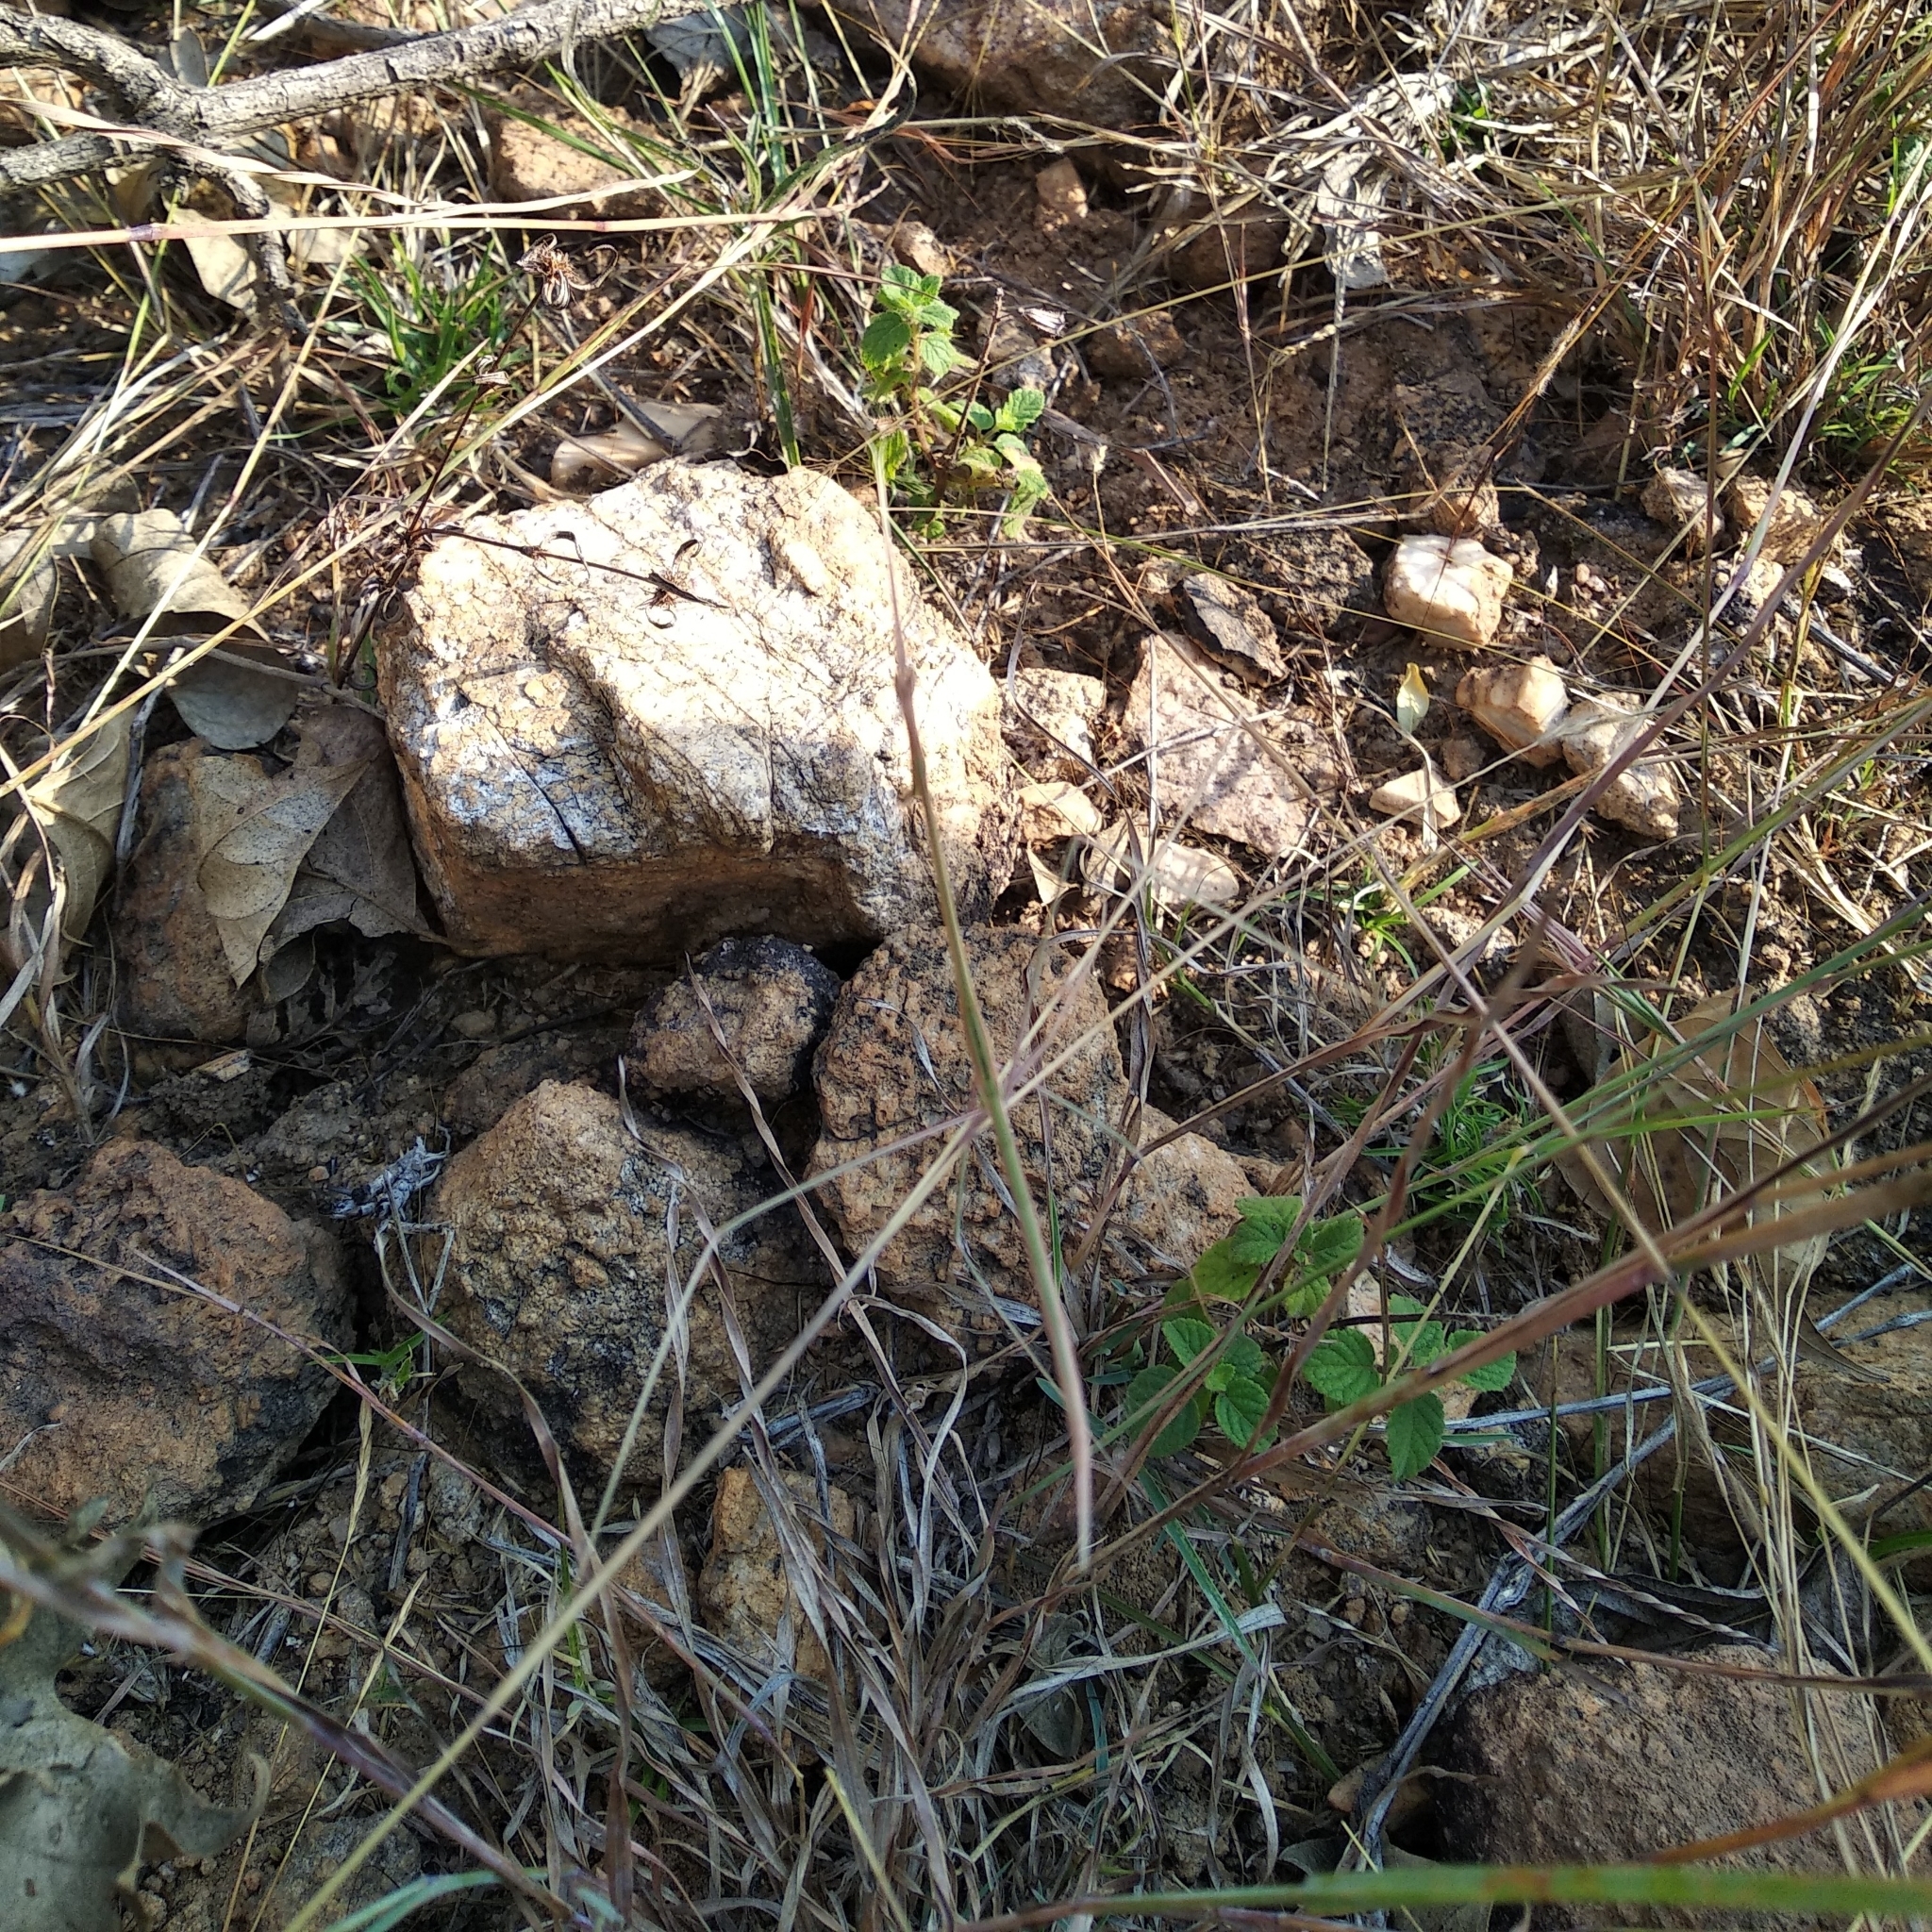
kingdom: Animalia
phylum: Arthropoda
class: Insecta
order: Mantodea
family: Eremiaphilidae
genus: Schizocephala
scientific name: Schizocephala bicornis
